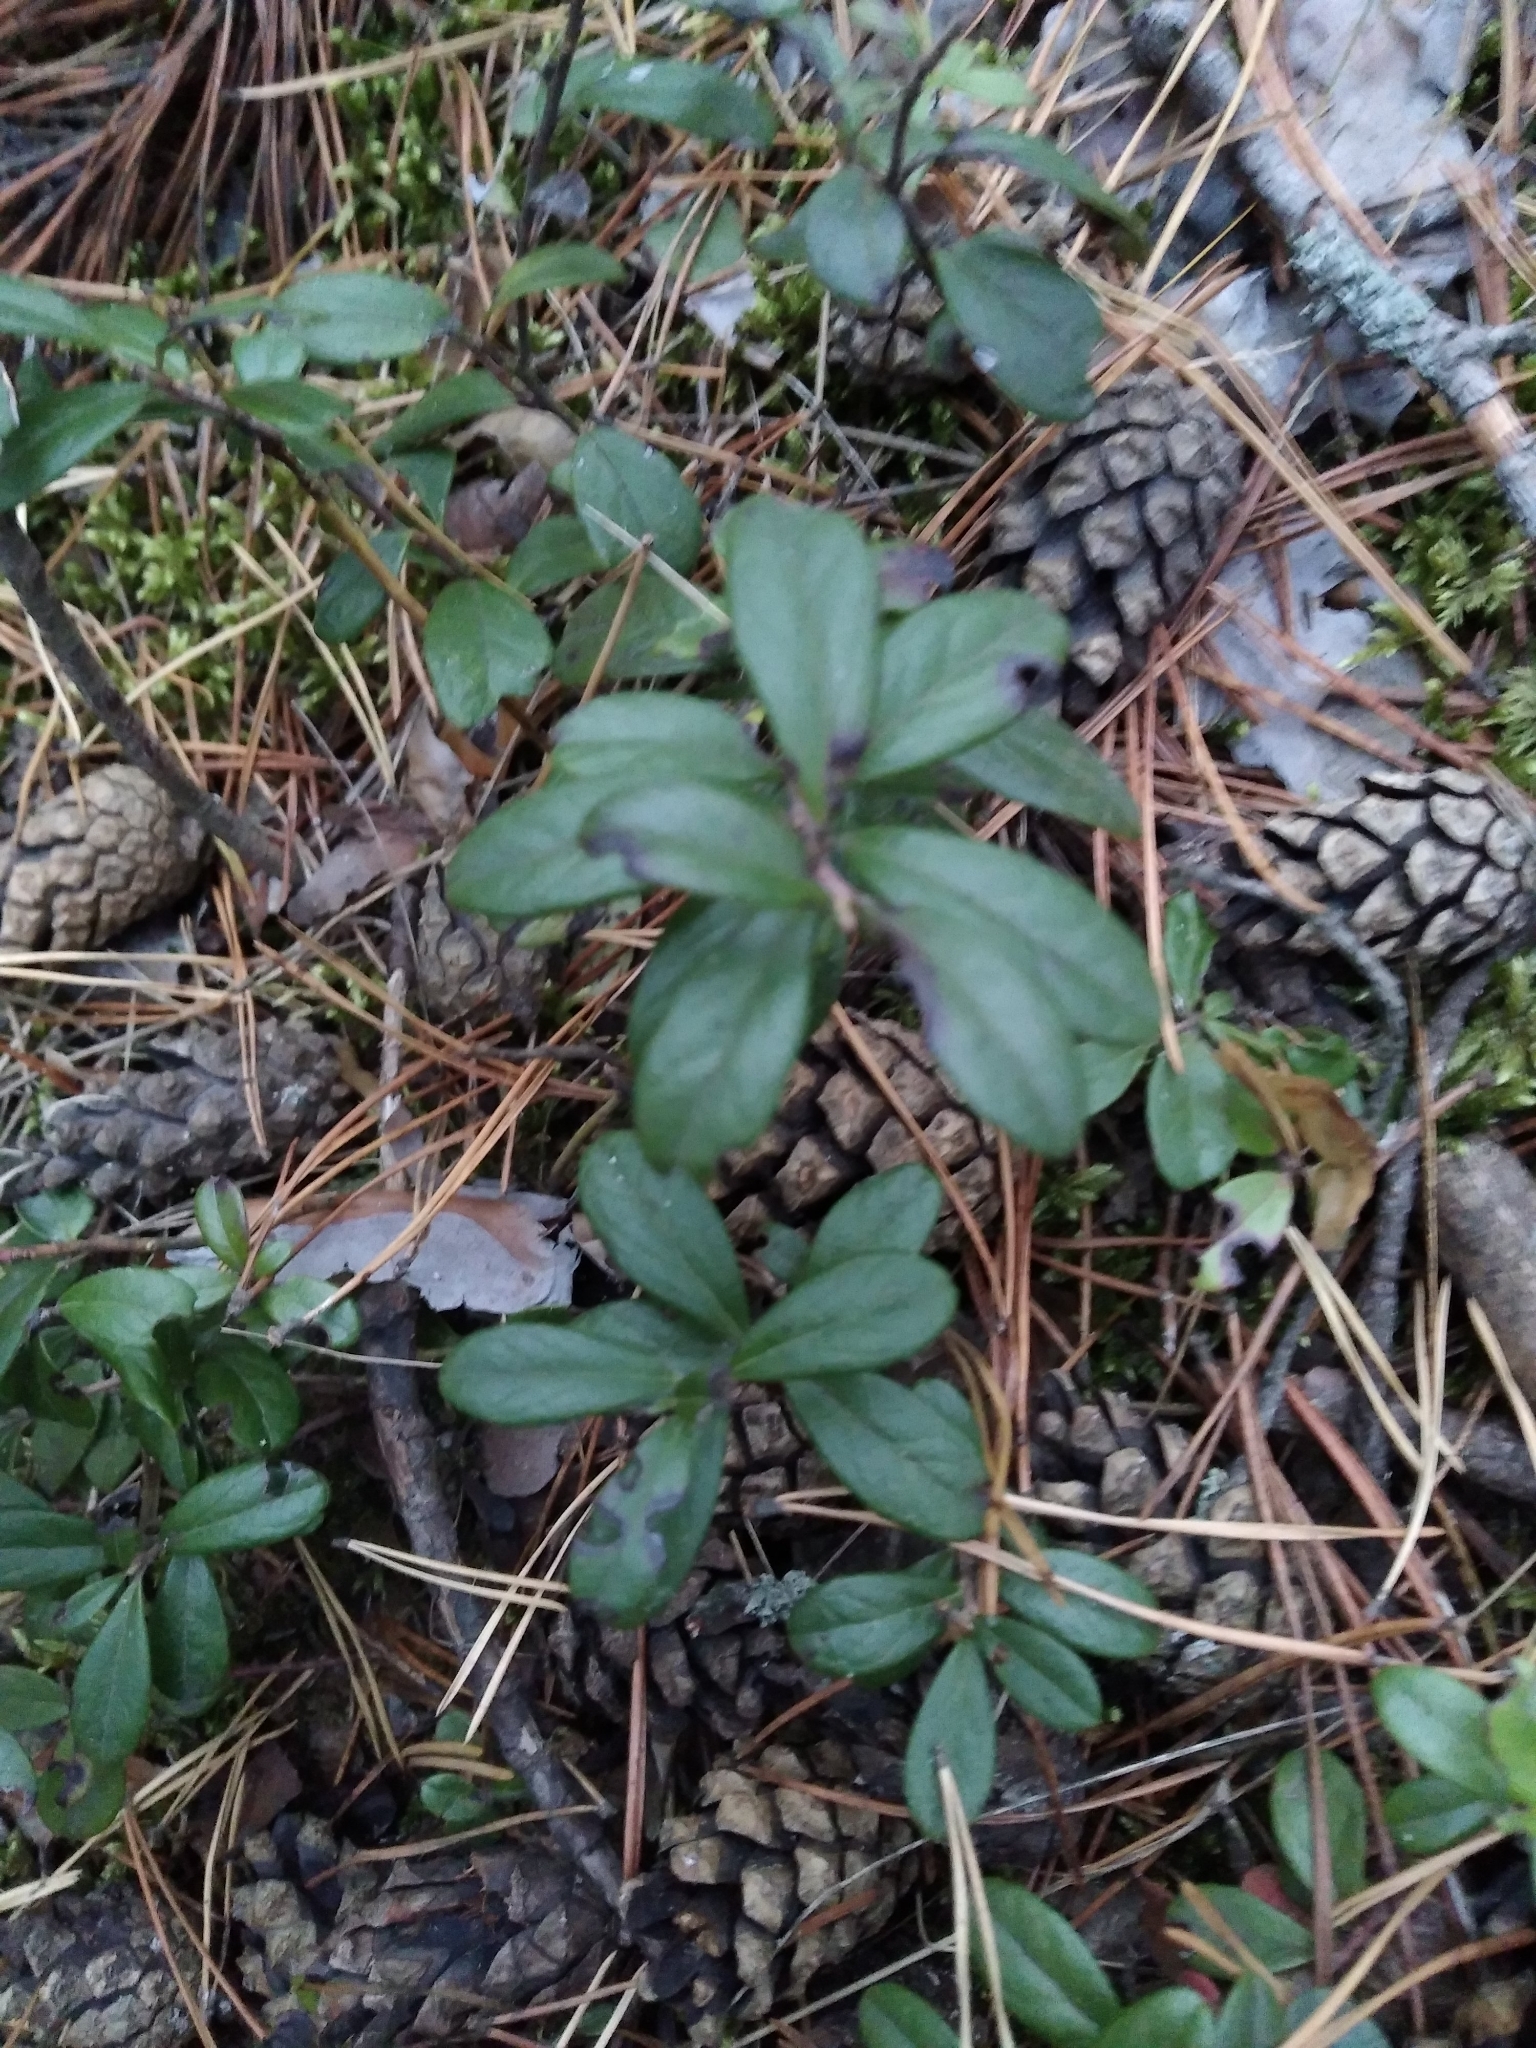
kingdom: Plantae
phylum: Tracheophyta
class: Magnoliopsida
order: Ericales
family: Ericaceae
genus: Vaccinium
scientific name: Vaccinium vitis-idaea
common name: Cowberry
